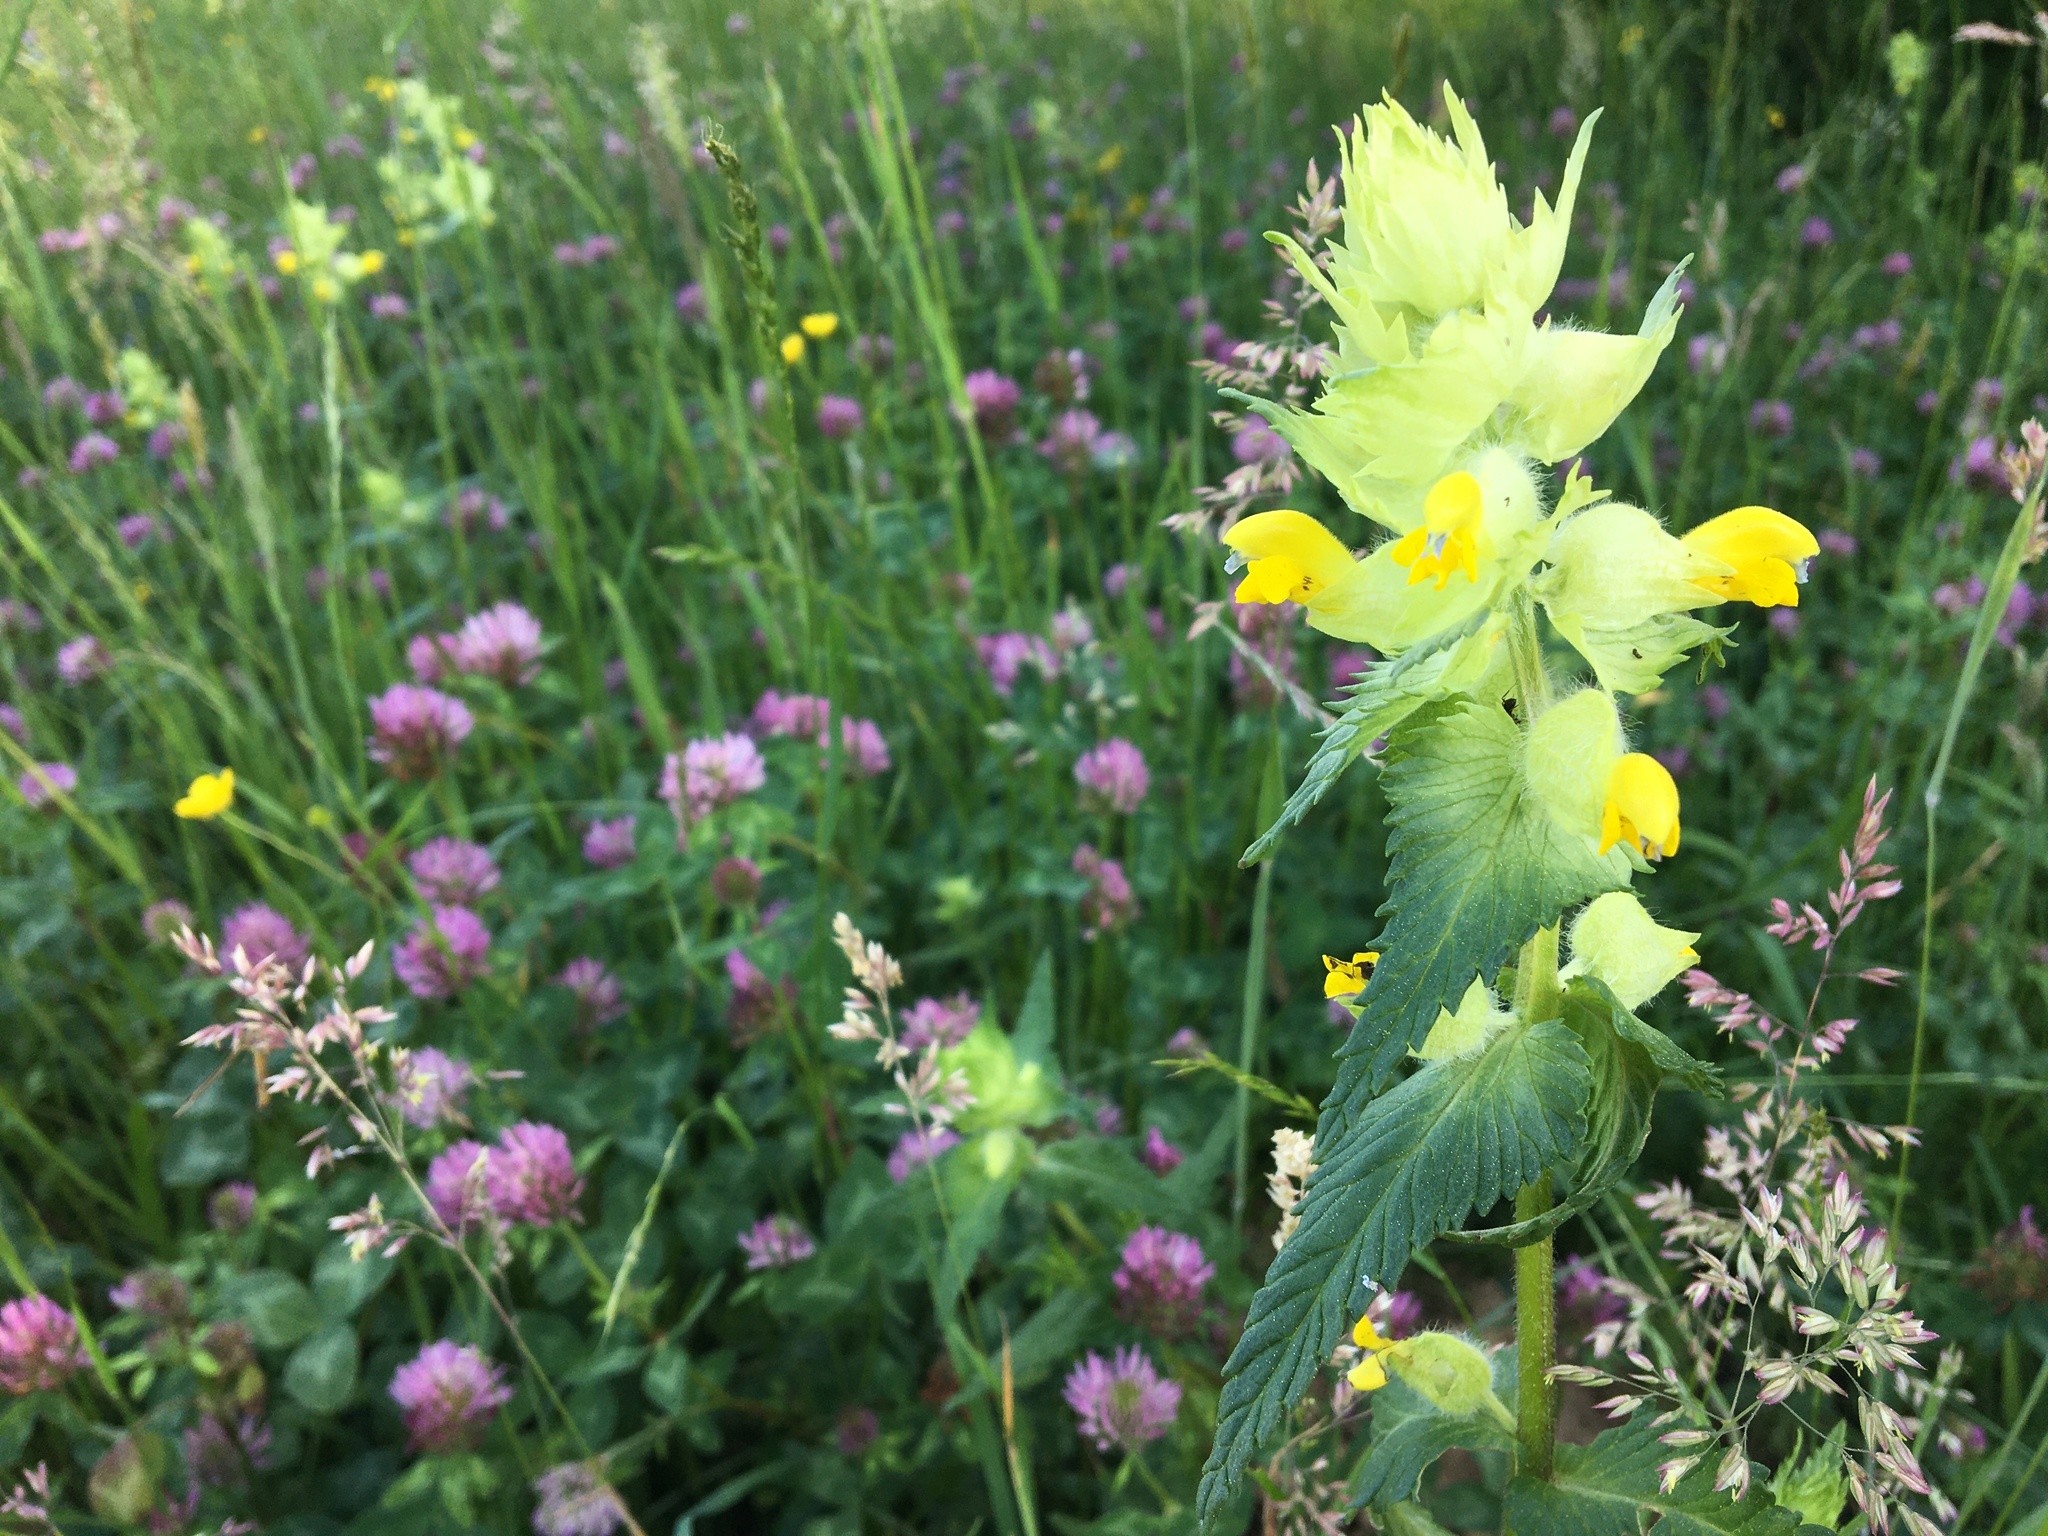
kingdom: Plantae
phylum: Tracheophyta
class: Magnoliopsida
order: Lamiales
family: Orobanchaceae
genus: Rhinanthus
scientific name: Rhinanthus alectorolophus
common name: Greater yellow-rattle
